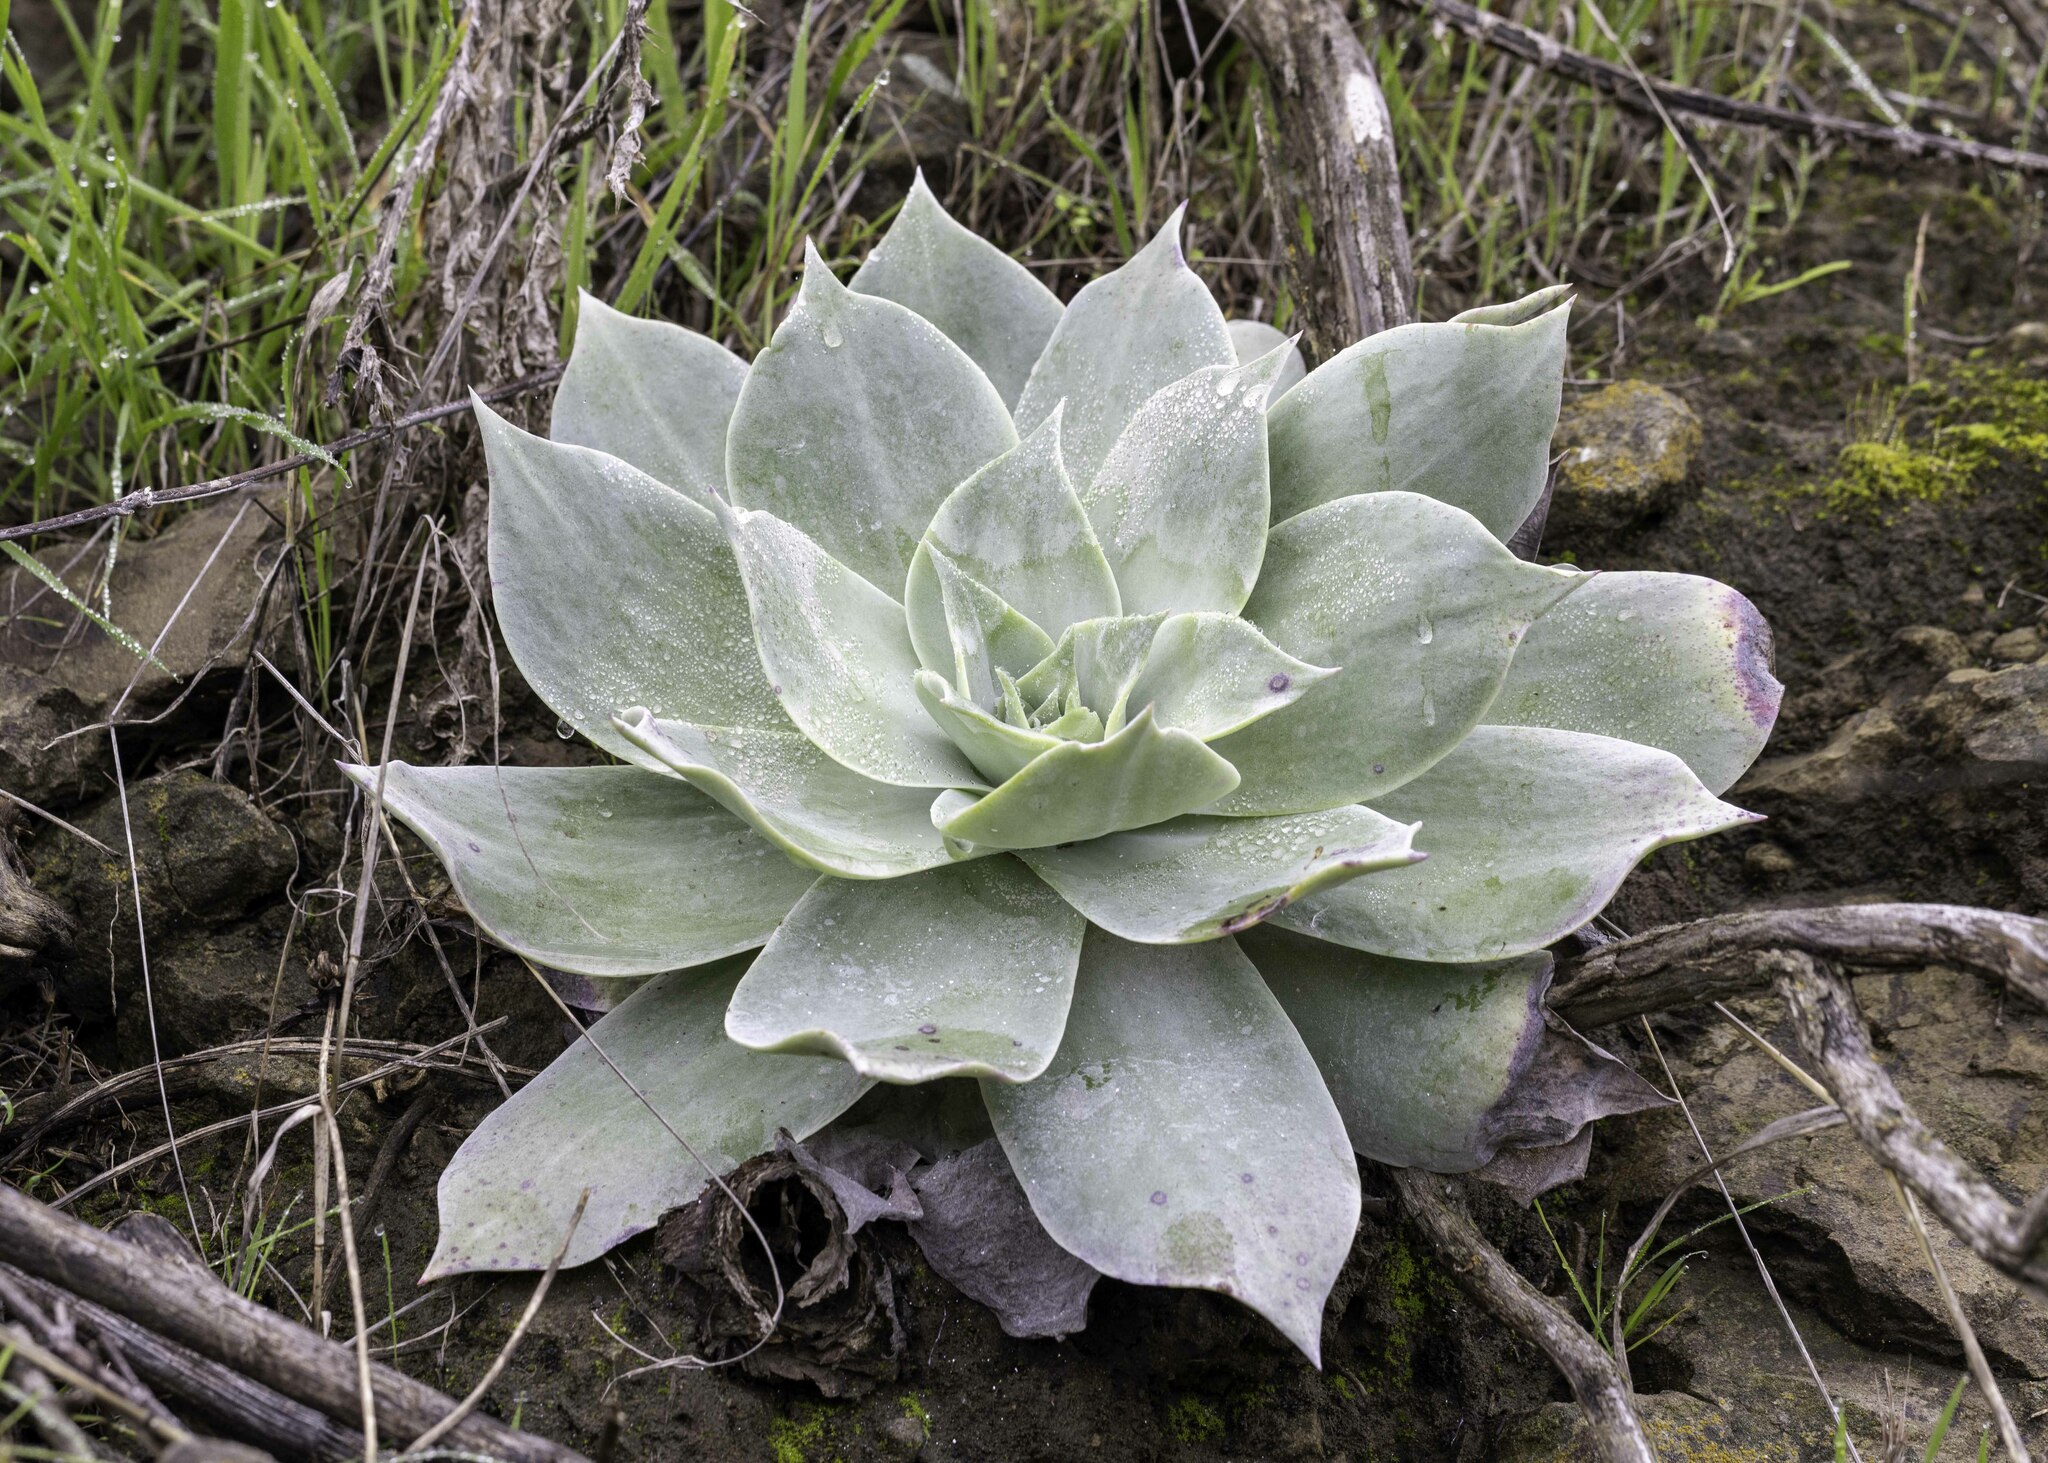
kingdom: Plantae
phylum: Tracheophyta
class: Magnoliopsida
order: Saxifragales
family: Crassulaceae
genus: Dudleya
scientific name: Dudleya pulverulenta
